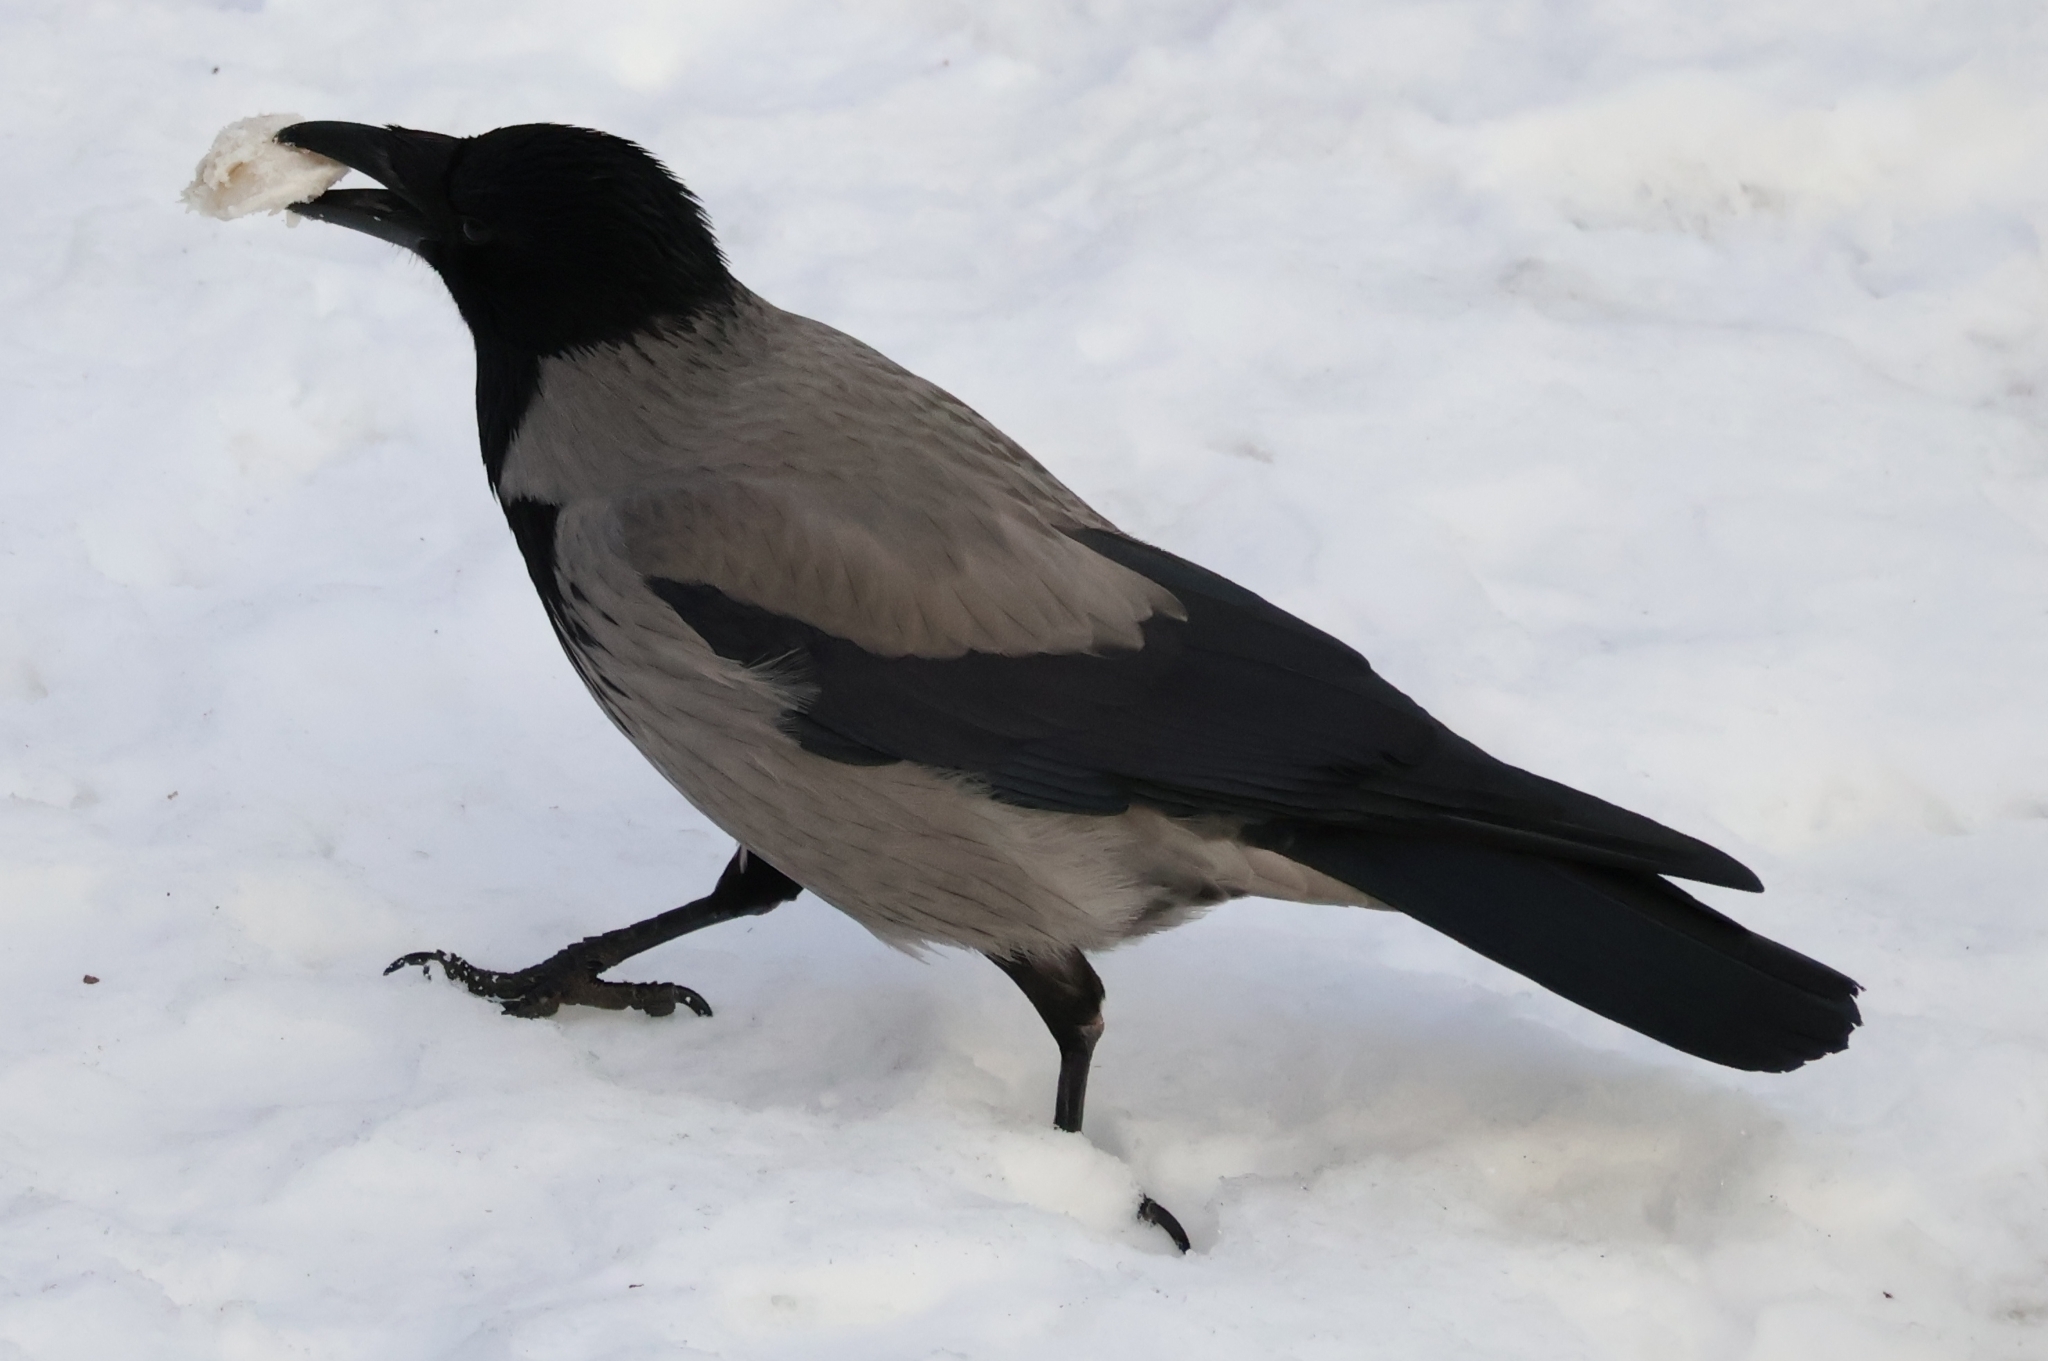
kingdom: Animalia
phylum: Chordata
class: Aves
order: Passeriformes
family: Corvidae
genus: Corvus
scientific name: Corvus cornix
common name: Hooded crow
